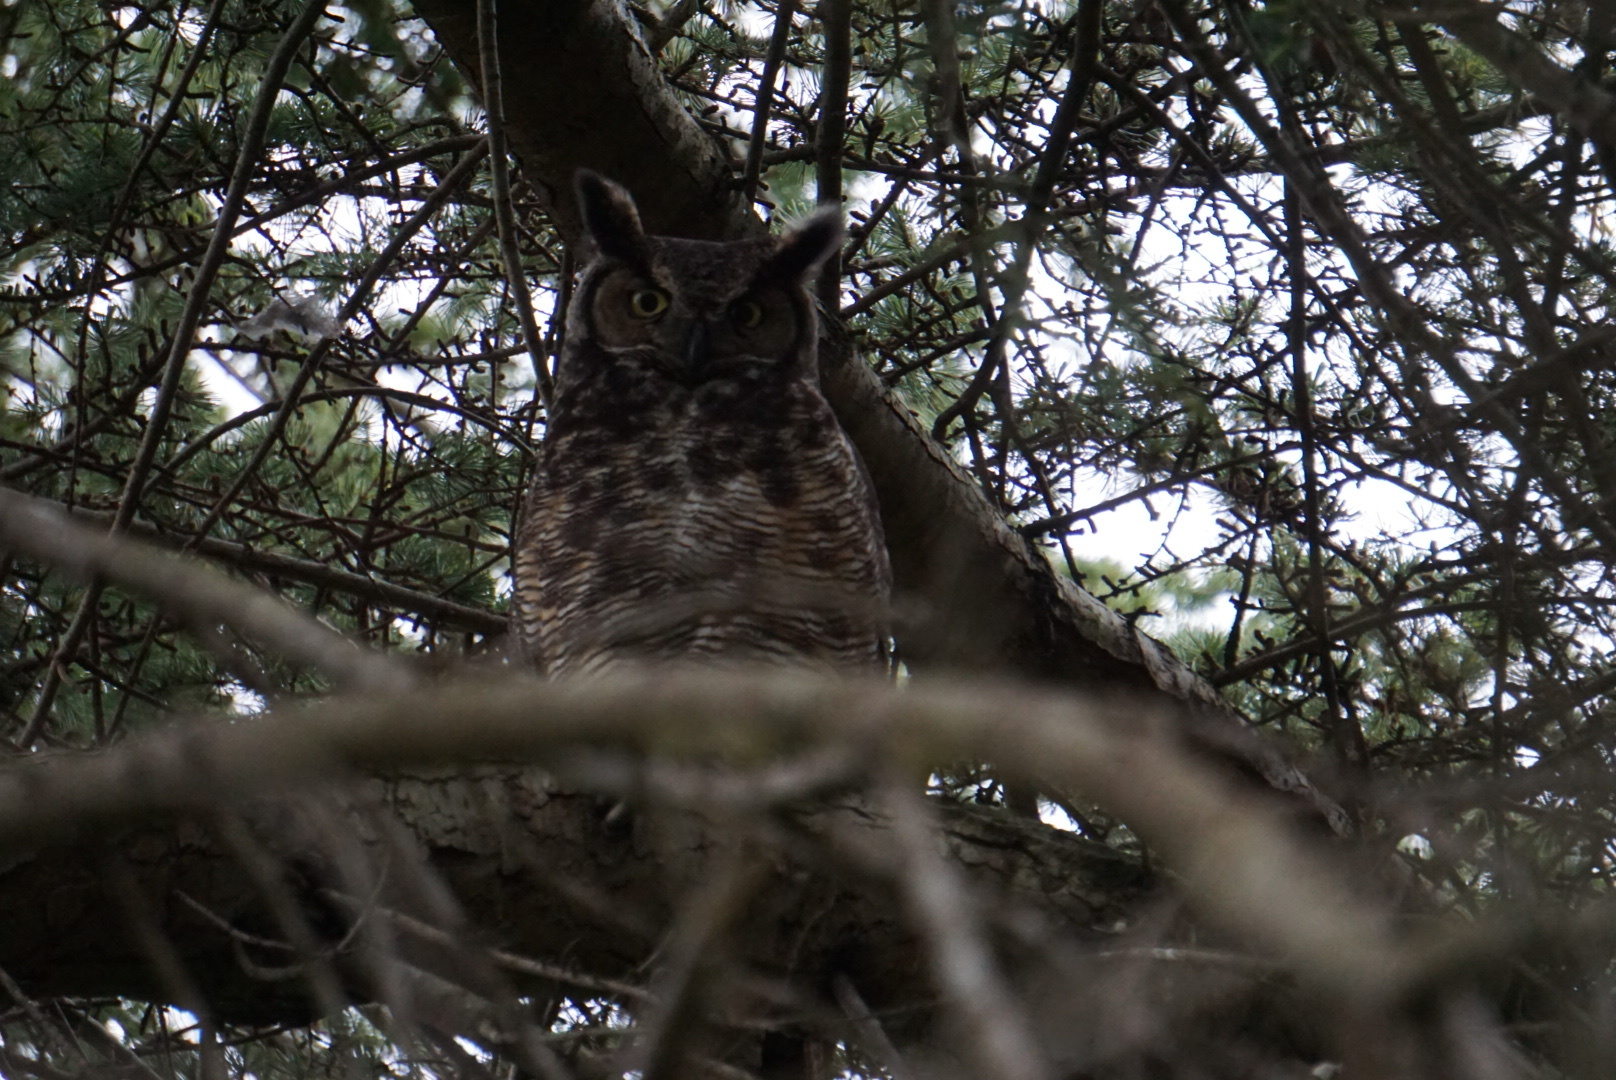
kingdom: Animalia
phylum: Chordata
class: Aves
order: Strigiformes
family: Strigidae
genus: Bubo
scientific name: Bubo virginianus
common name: Great horned owl
